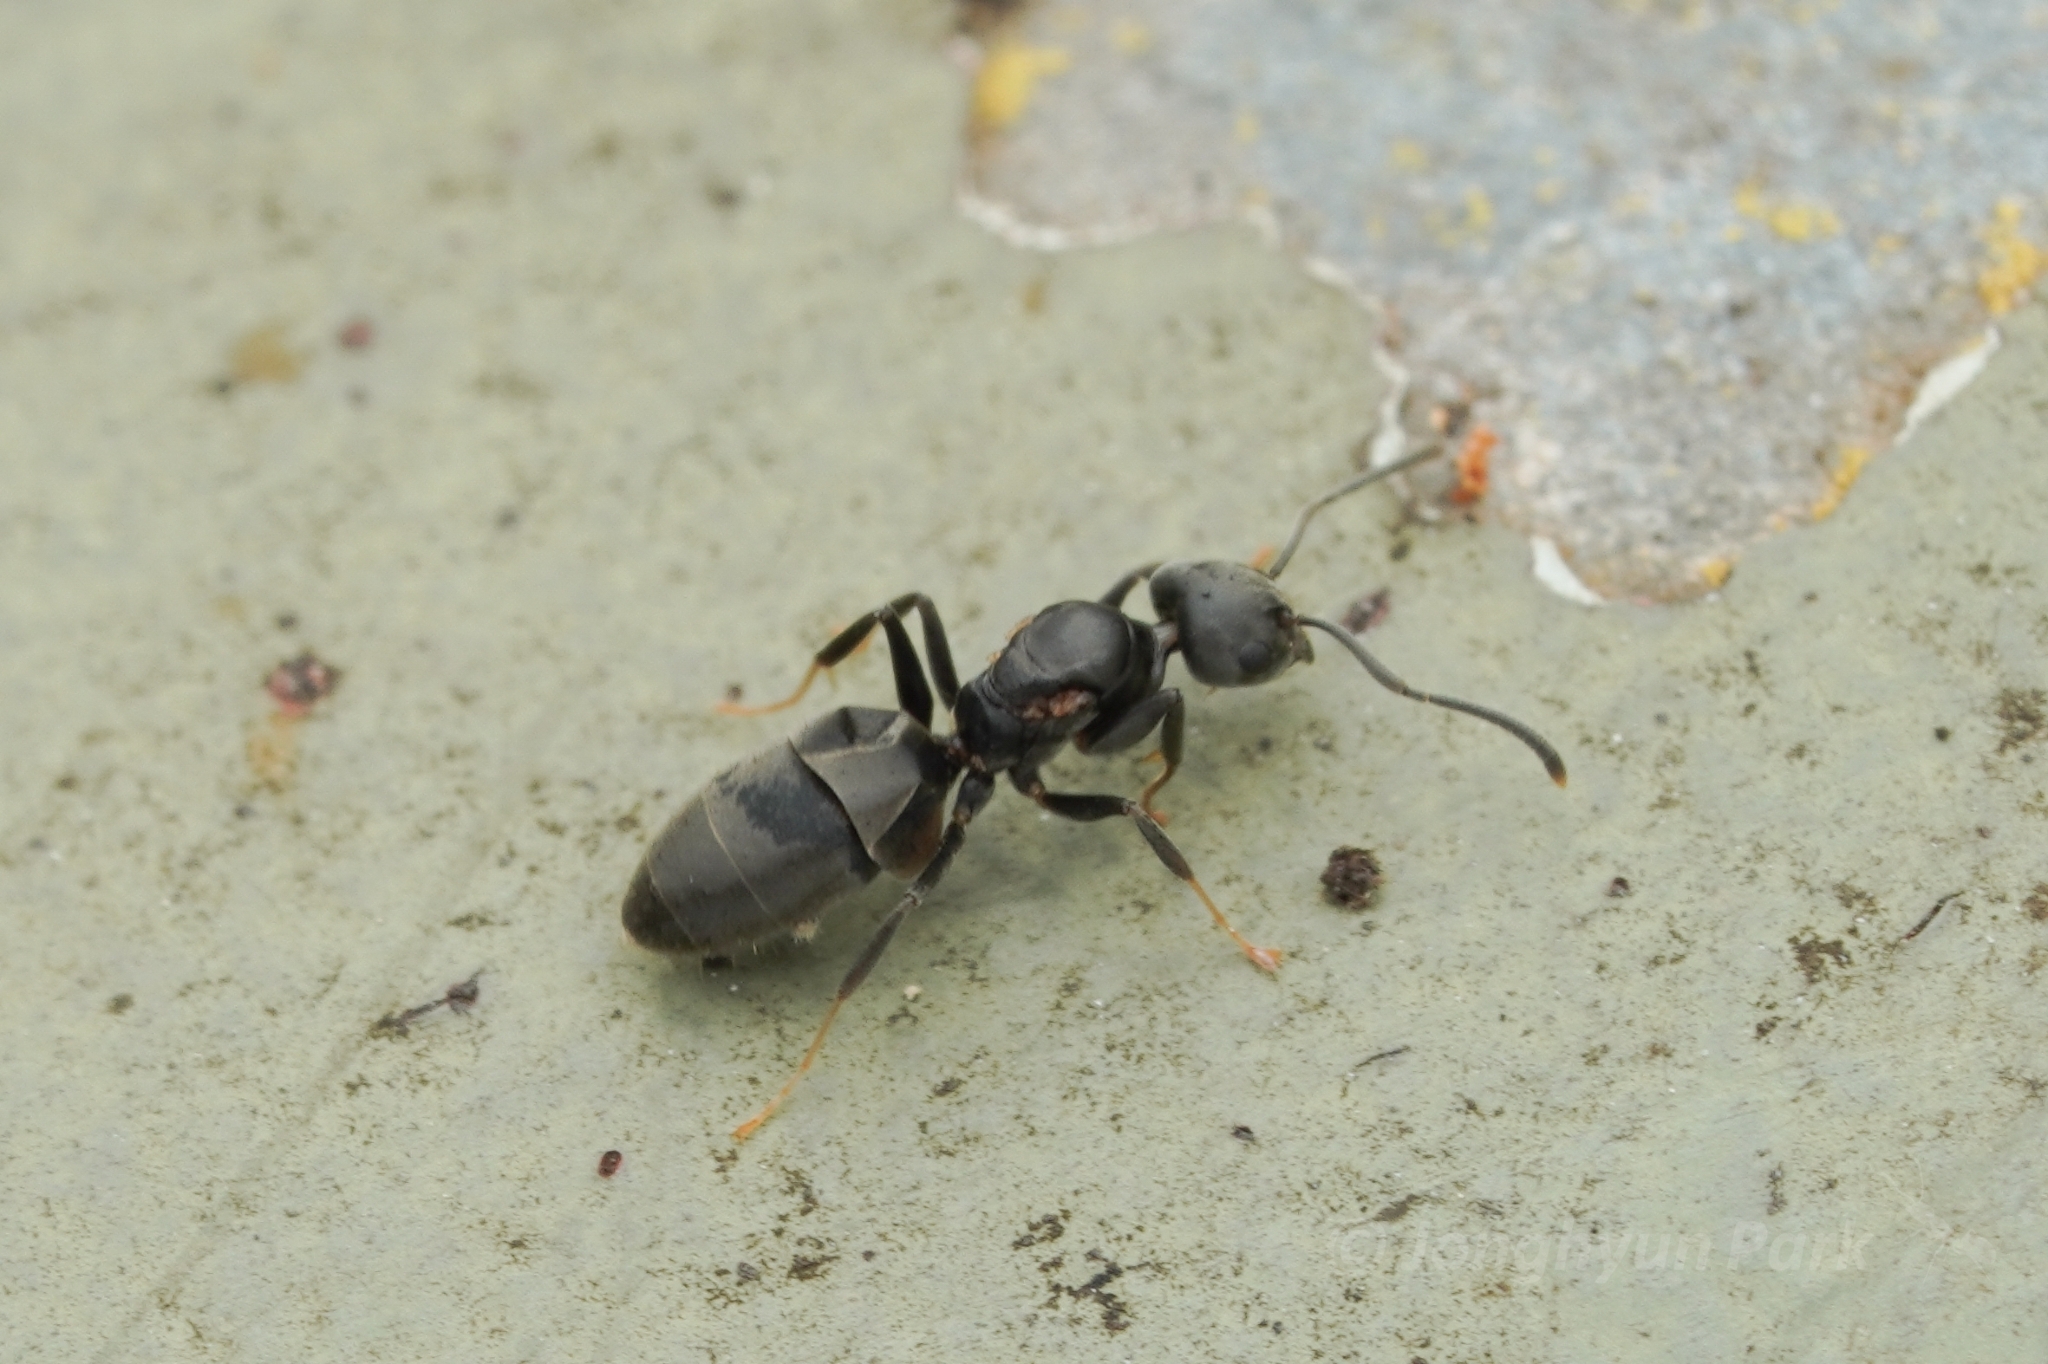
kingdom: Animalia
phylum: Arthropoda
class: Insecta
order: Hymenoptera
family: Formicidae
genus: Technomyrmex
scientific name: Technomyrmex brunneus
